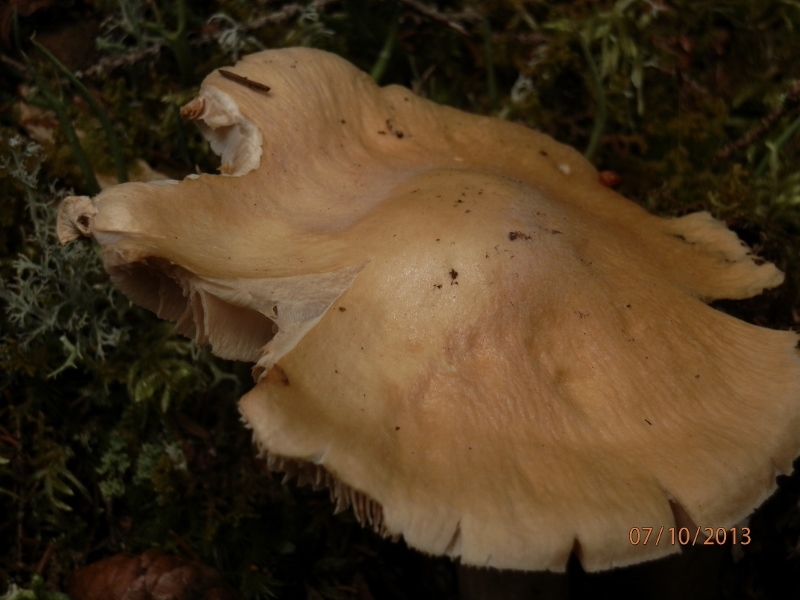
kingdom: Fungi
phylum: Basidiomycota
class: Agaricomycetes
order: Agaricales
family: Cortinariaceae
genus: Cortinarius
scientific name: Cortinarius caperatus
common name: The gypsy
